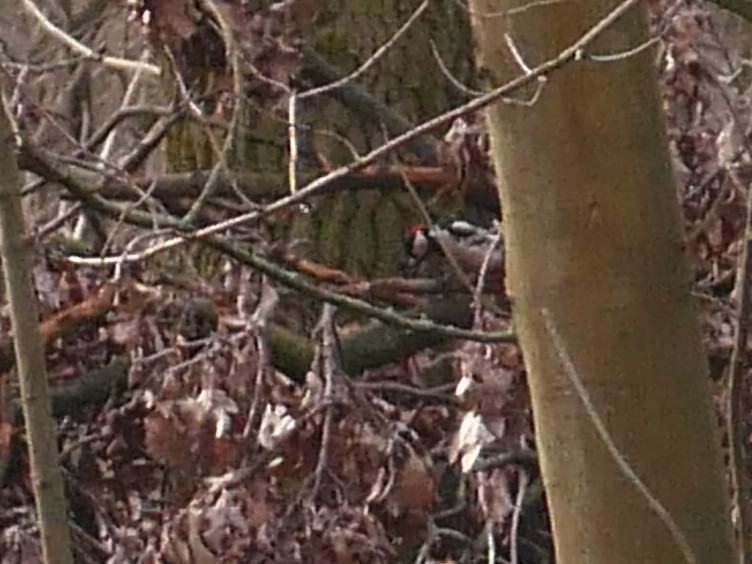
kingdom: Animalia
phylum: Chordata
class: Aves
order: Piciformes
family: Picidae
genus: Dendrocopos
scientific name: Dendrocopos major
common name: Great spotted woodpecker
